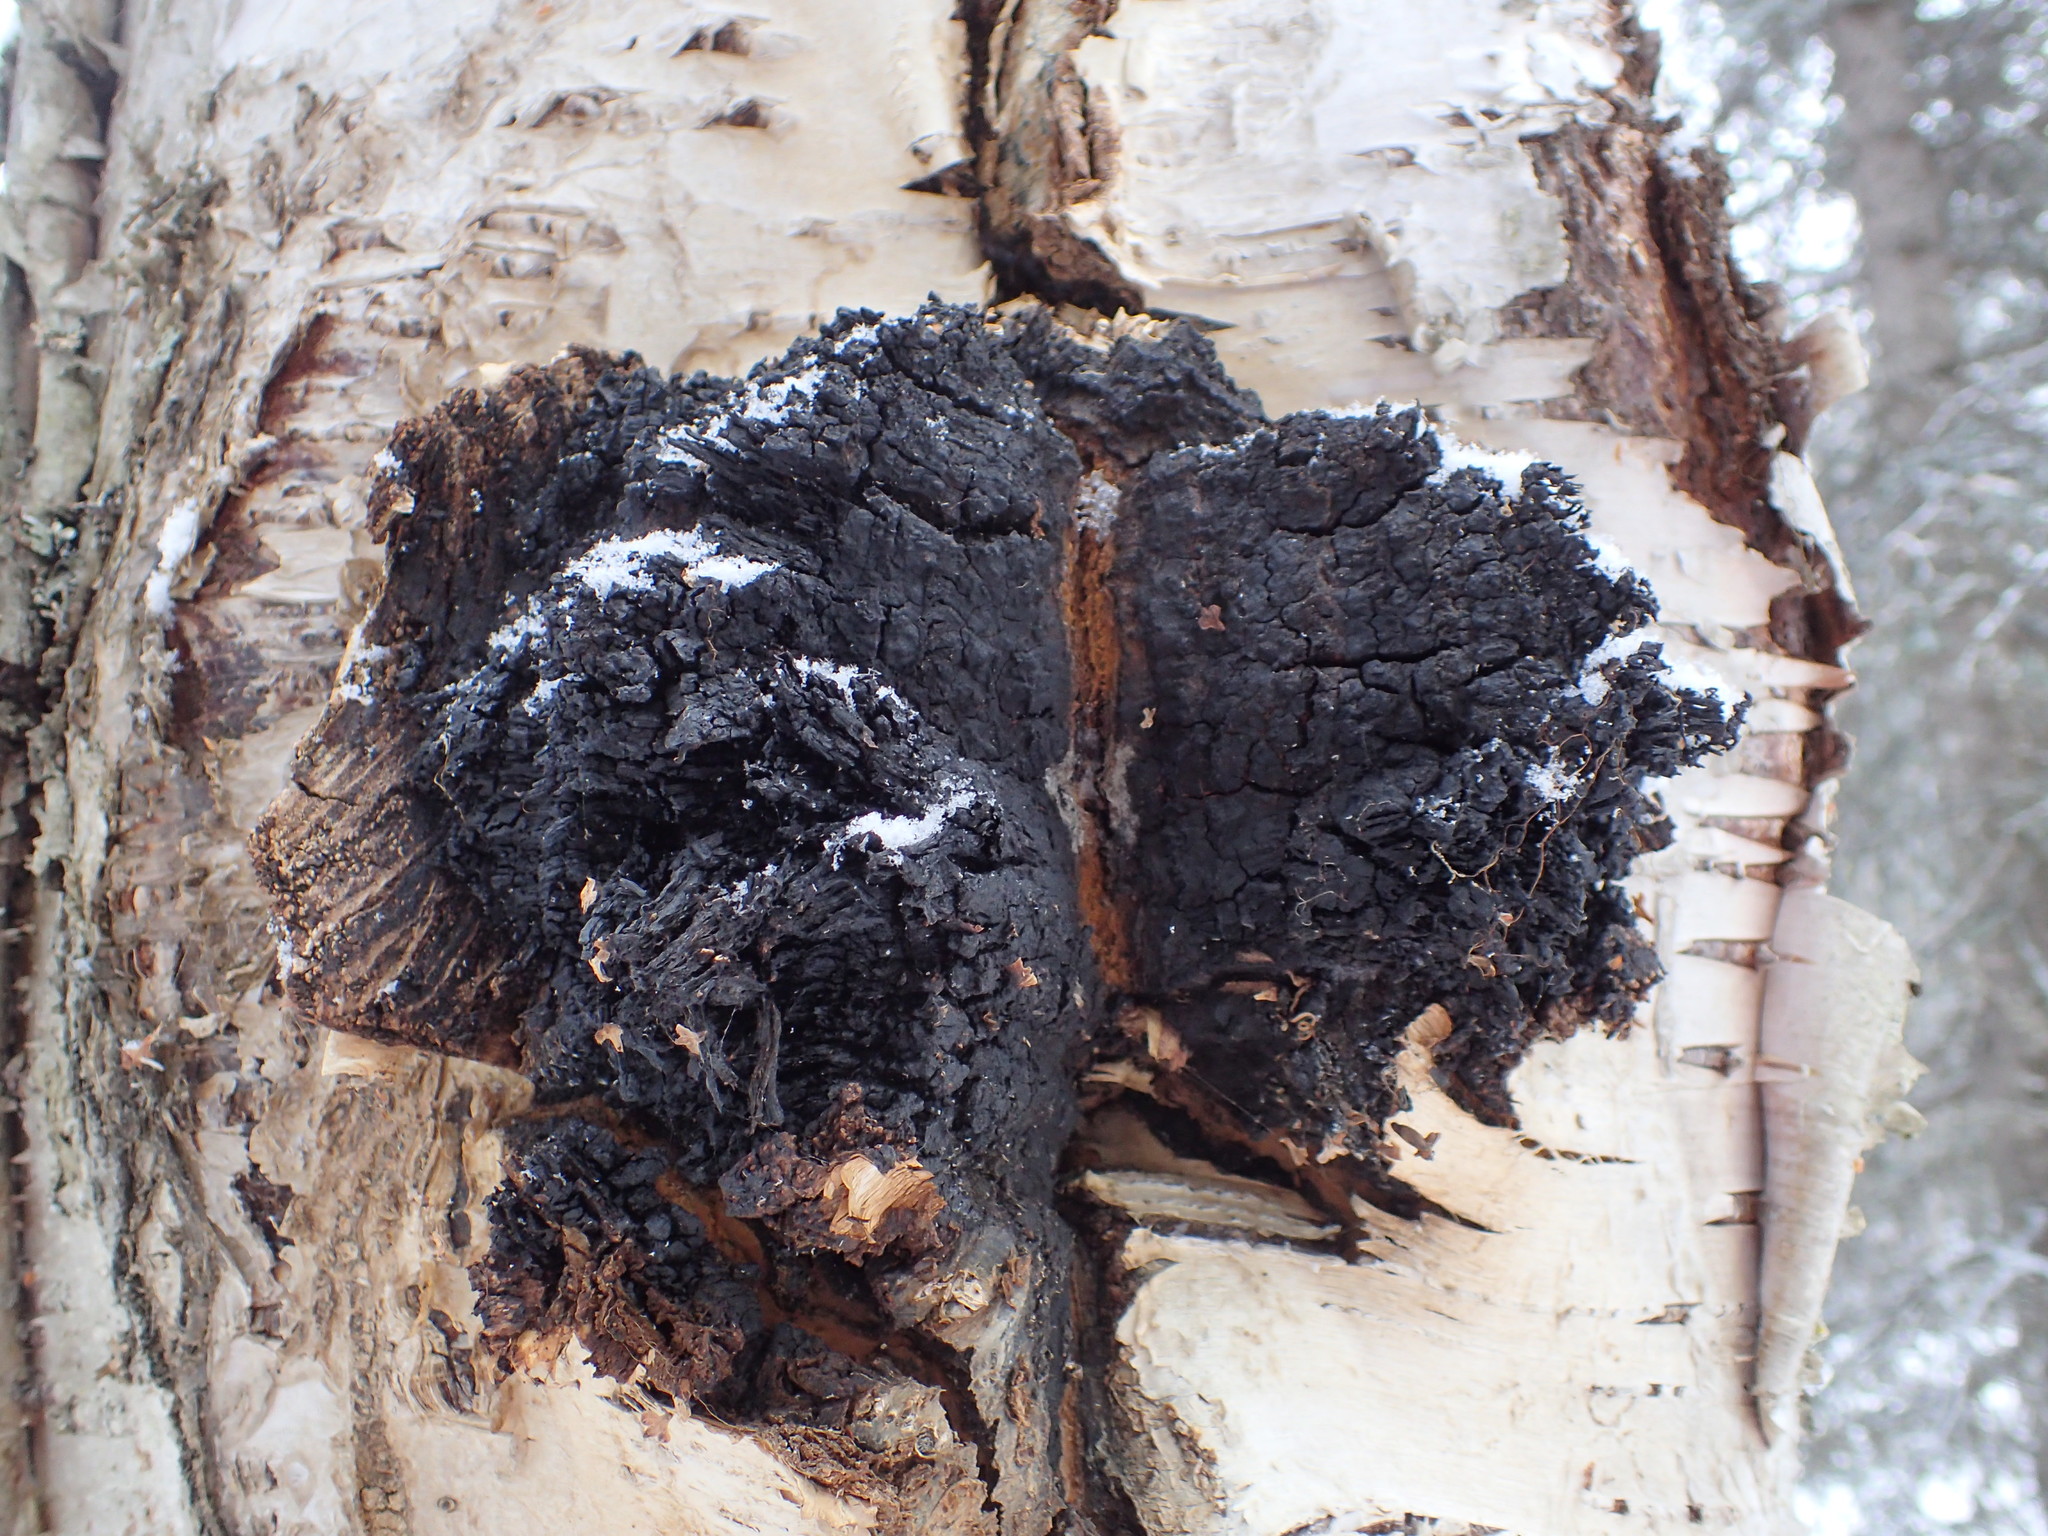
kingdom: Fungi
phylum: Basidiomycota
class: Agaricomycetes
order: Hymenochaetales
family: Hymenochaetaceae
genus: Inonotus
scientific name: Inonotus obliquus
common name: Chaga
